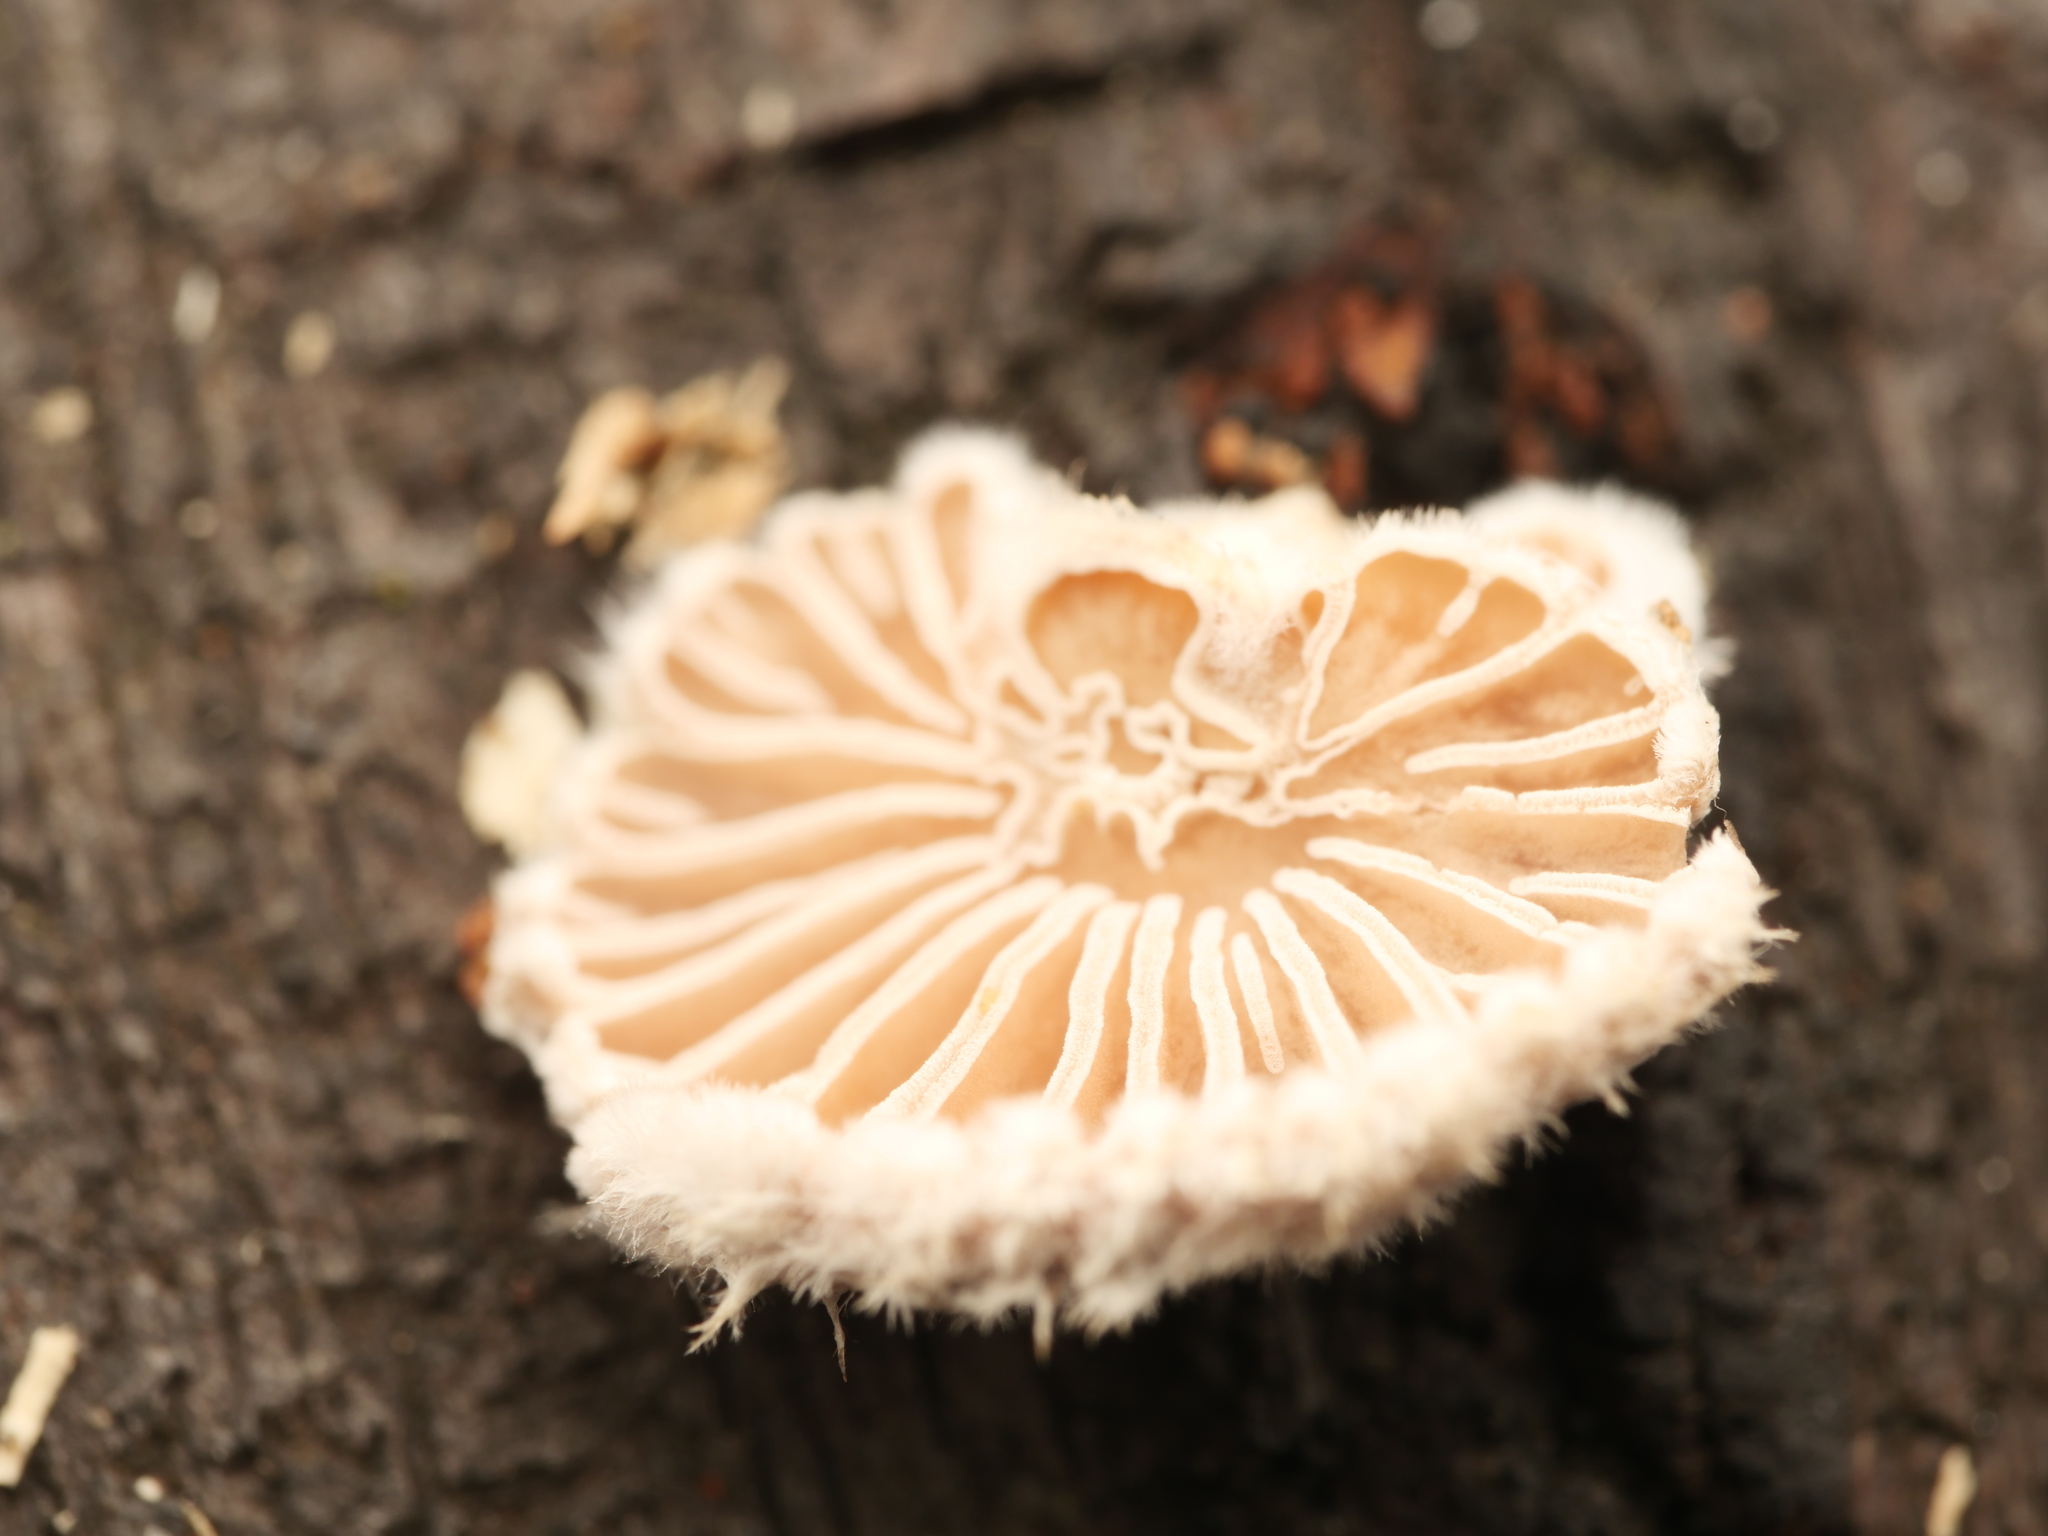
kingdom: Fungi
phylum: Basidiomycota
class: Agaricomycetes
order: Agaricales
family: Schizophyllaceae
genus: Schizophyllum
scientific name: Schizophyllum commune
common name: Common porecrust
